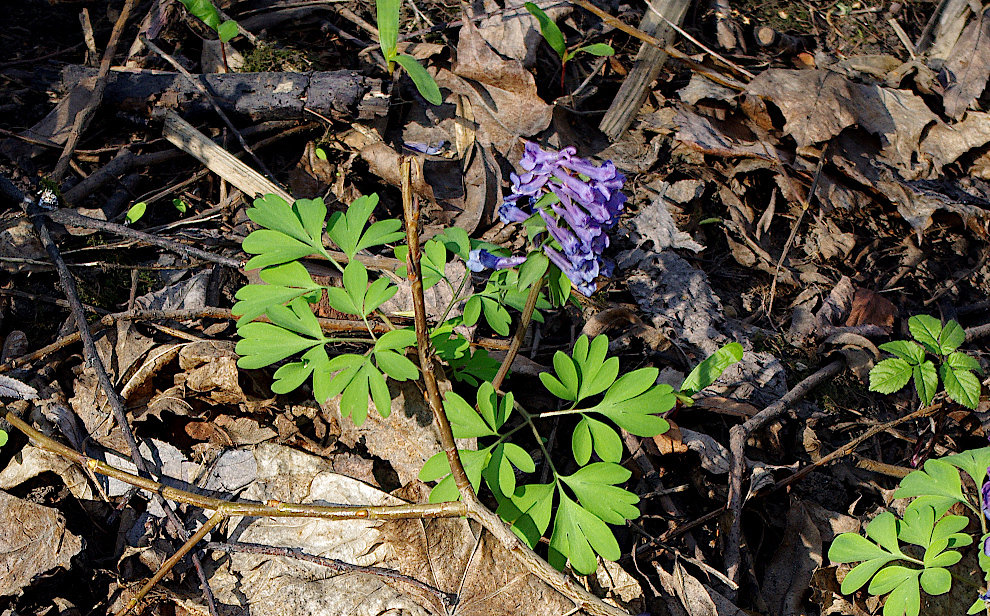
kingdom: Plantae
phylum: Tracheophyta
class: Magnoliopsida
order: Ranunculales
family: Papaveraceae
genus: Corydalis
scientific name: Corydalis solida
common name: Bird-in-a-bush
